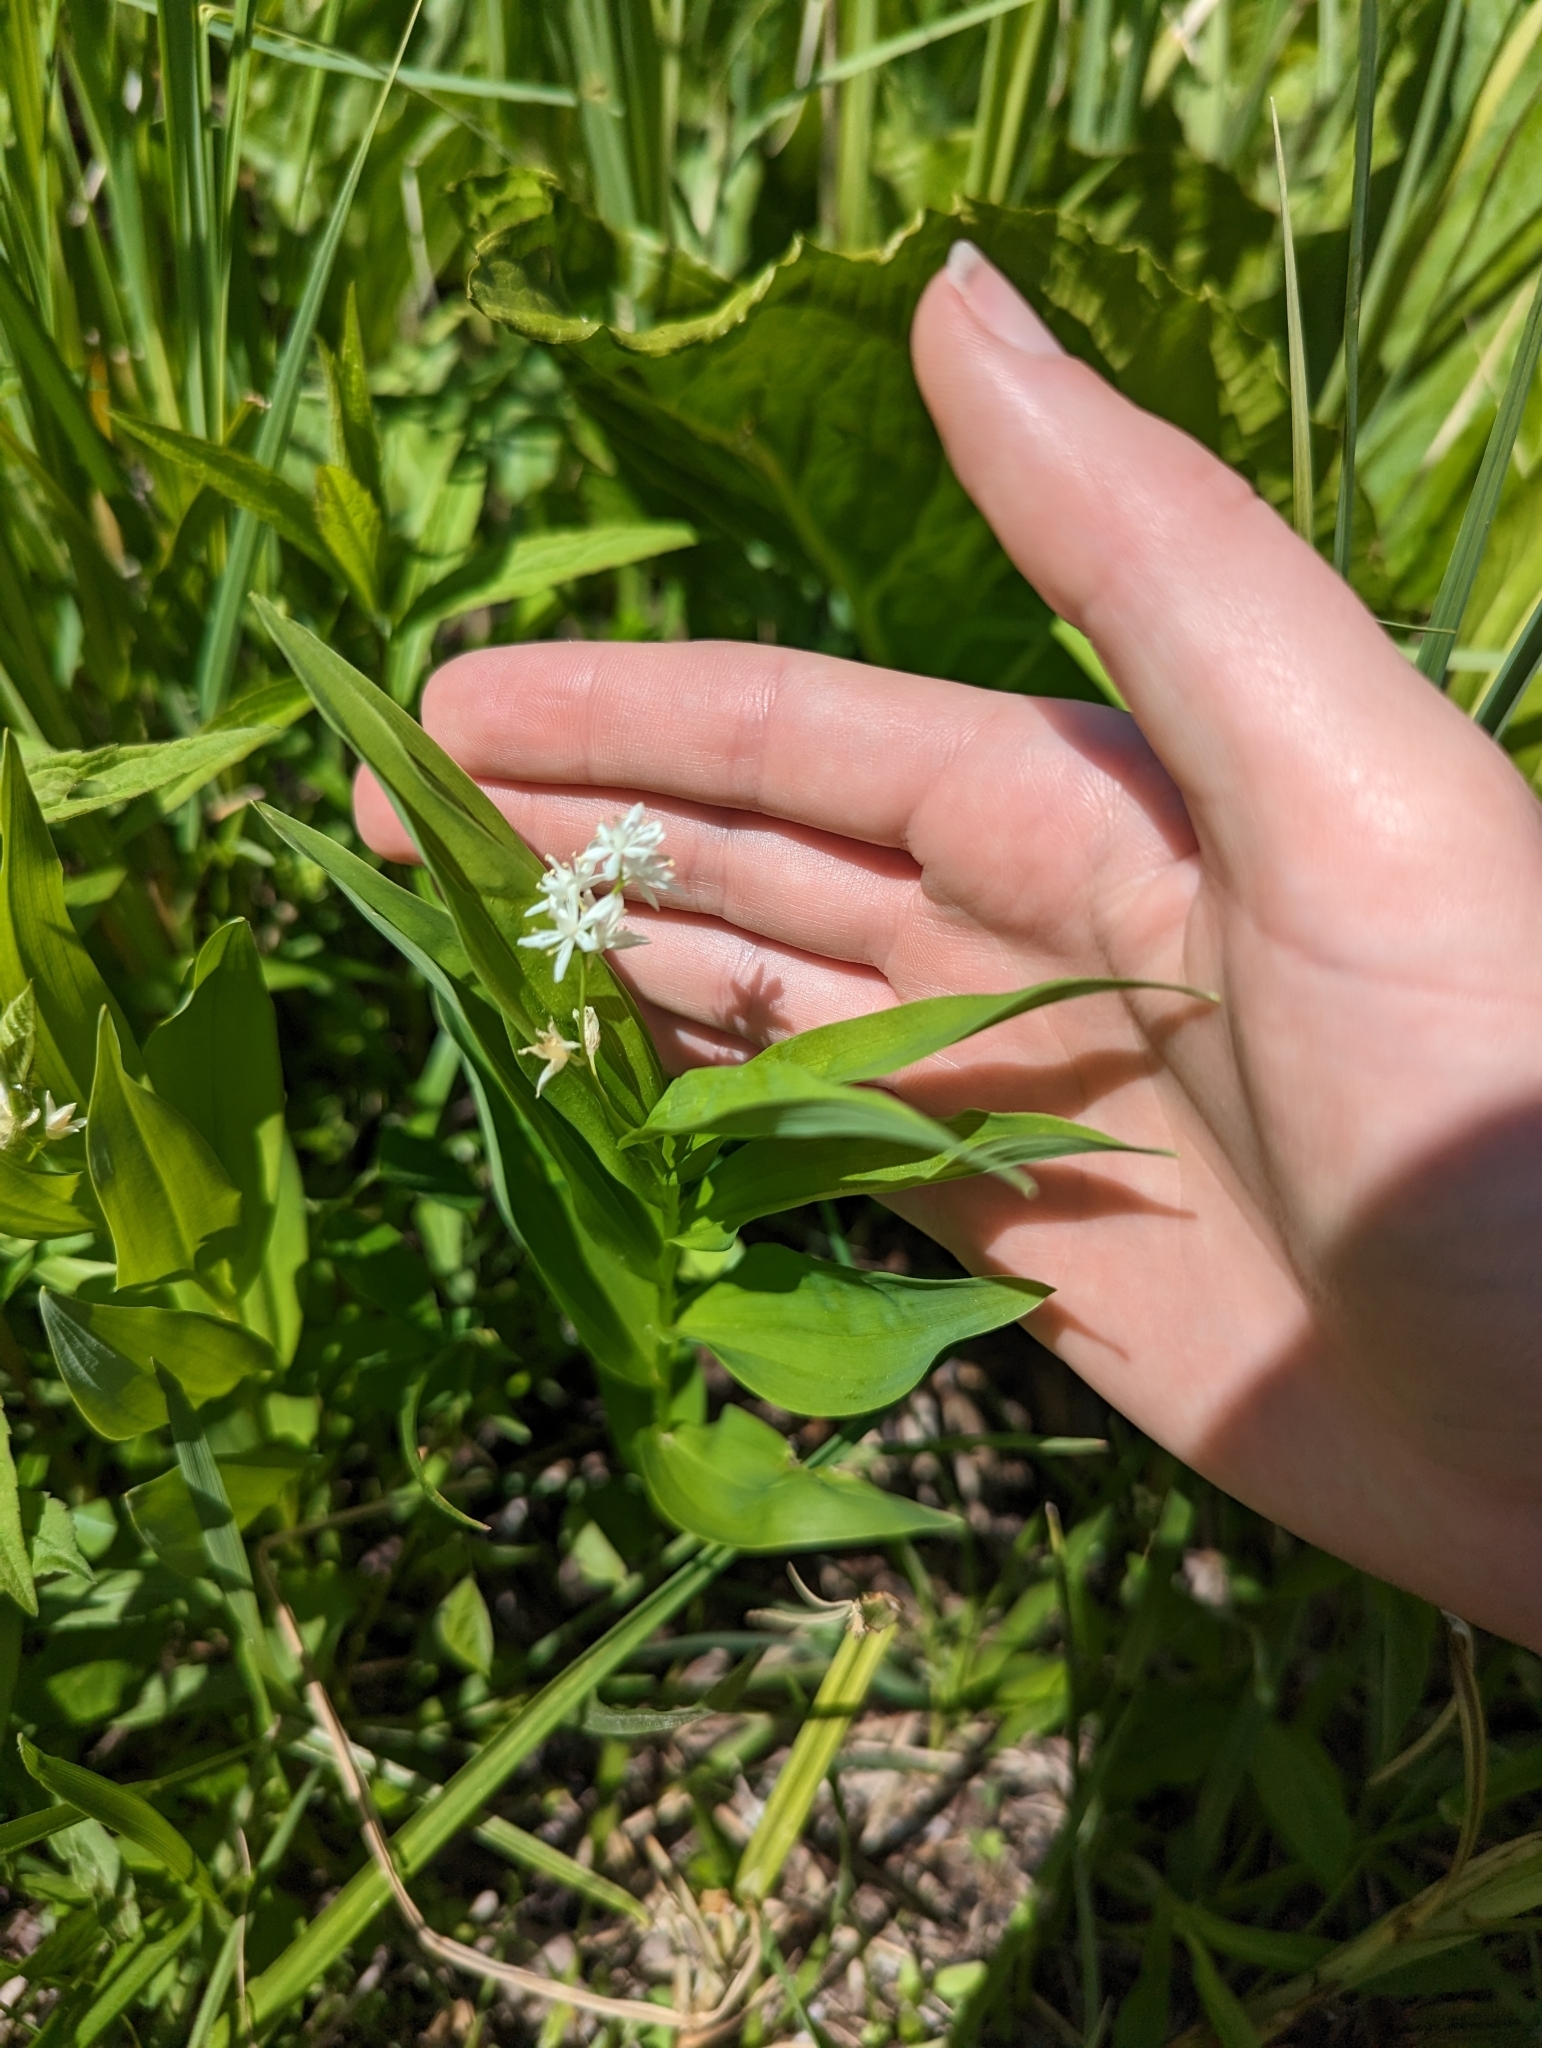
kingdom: Plantae
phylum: Tracheophyta
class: Liliopsida
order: Asparagales
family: Asparagaceae
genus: Maianthemum
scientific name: Maianthemum stellatum
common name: Little false solomon's seal
